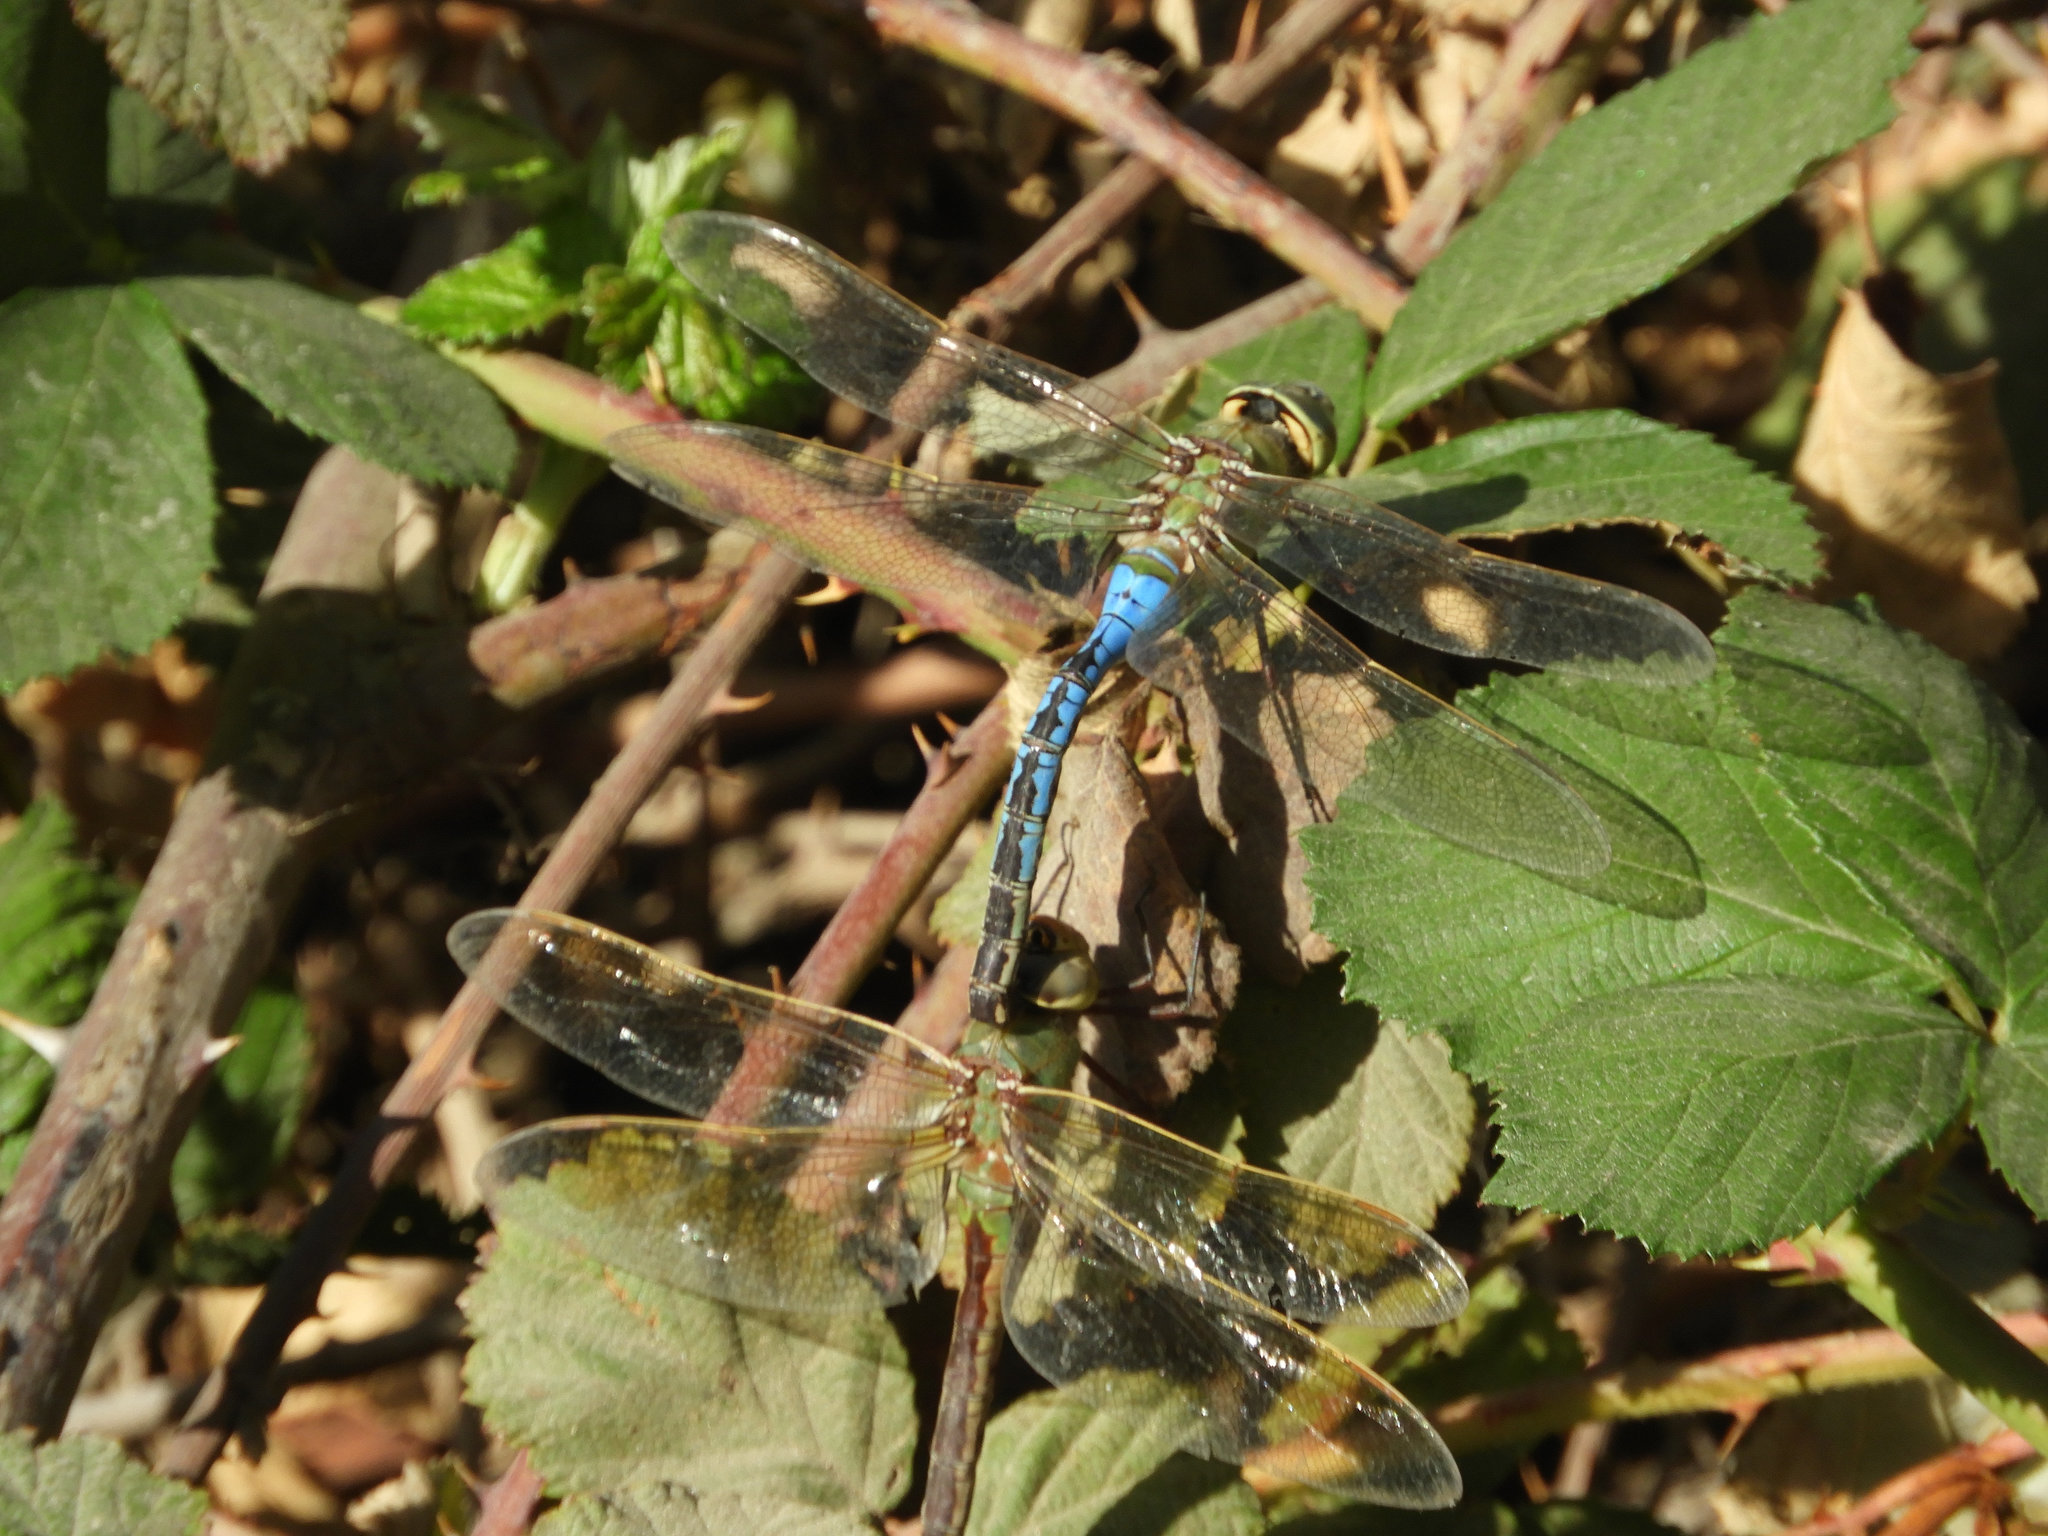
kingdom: Animalia
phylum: Arthropoda
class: Insecta
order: Odonata
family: Aeshnidae
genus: Anax
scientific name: Anax junius
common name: Common green darner
